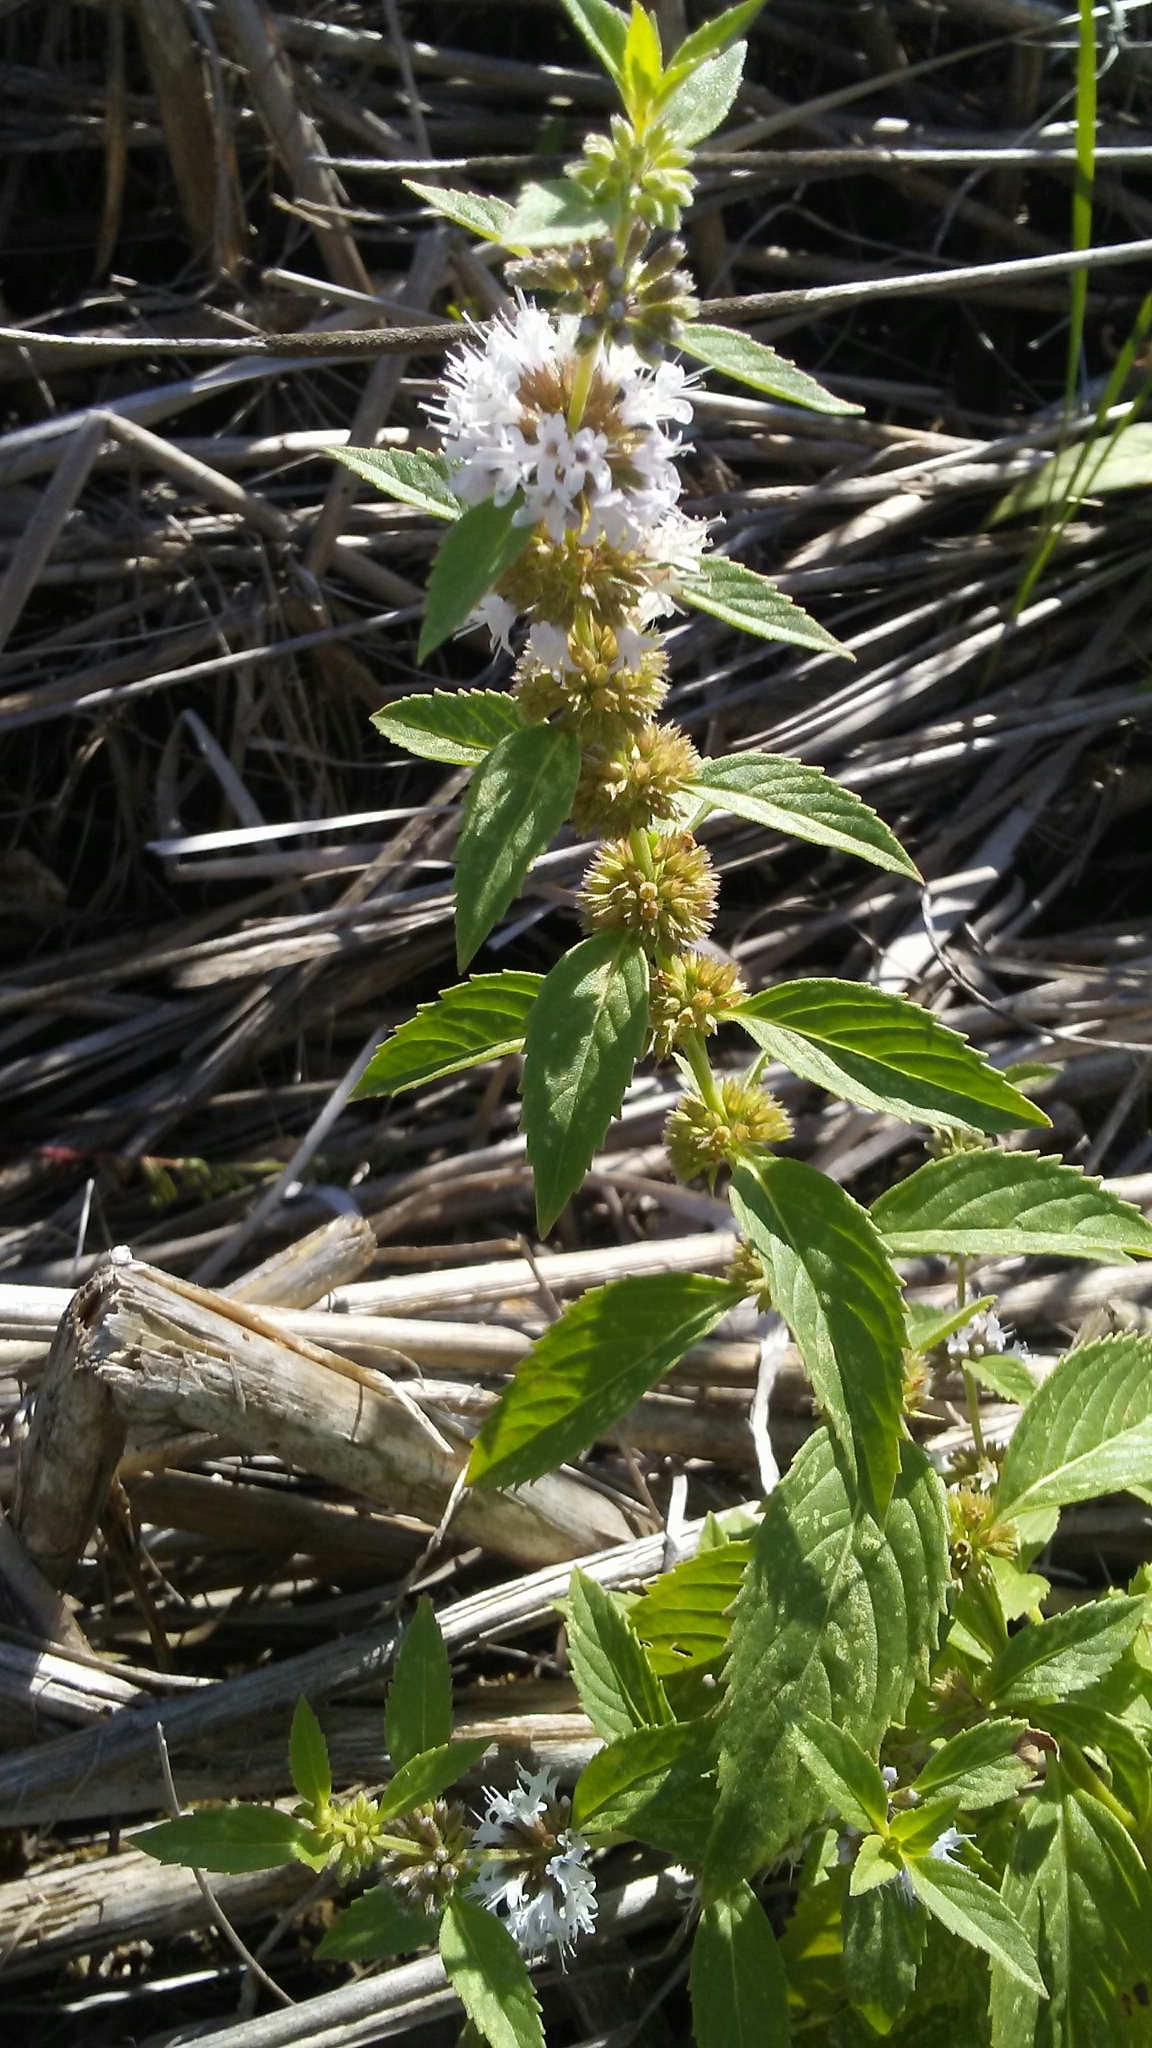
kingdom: Plantae
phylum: Tracheophyta
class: Magnoliopsida
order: Lamiales
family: Lamiaceae
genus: Mentha
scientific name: Mentha canadensis
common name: American corn mint
